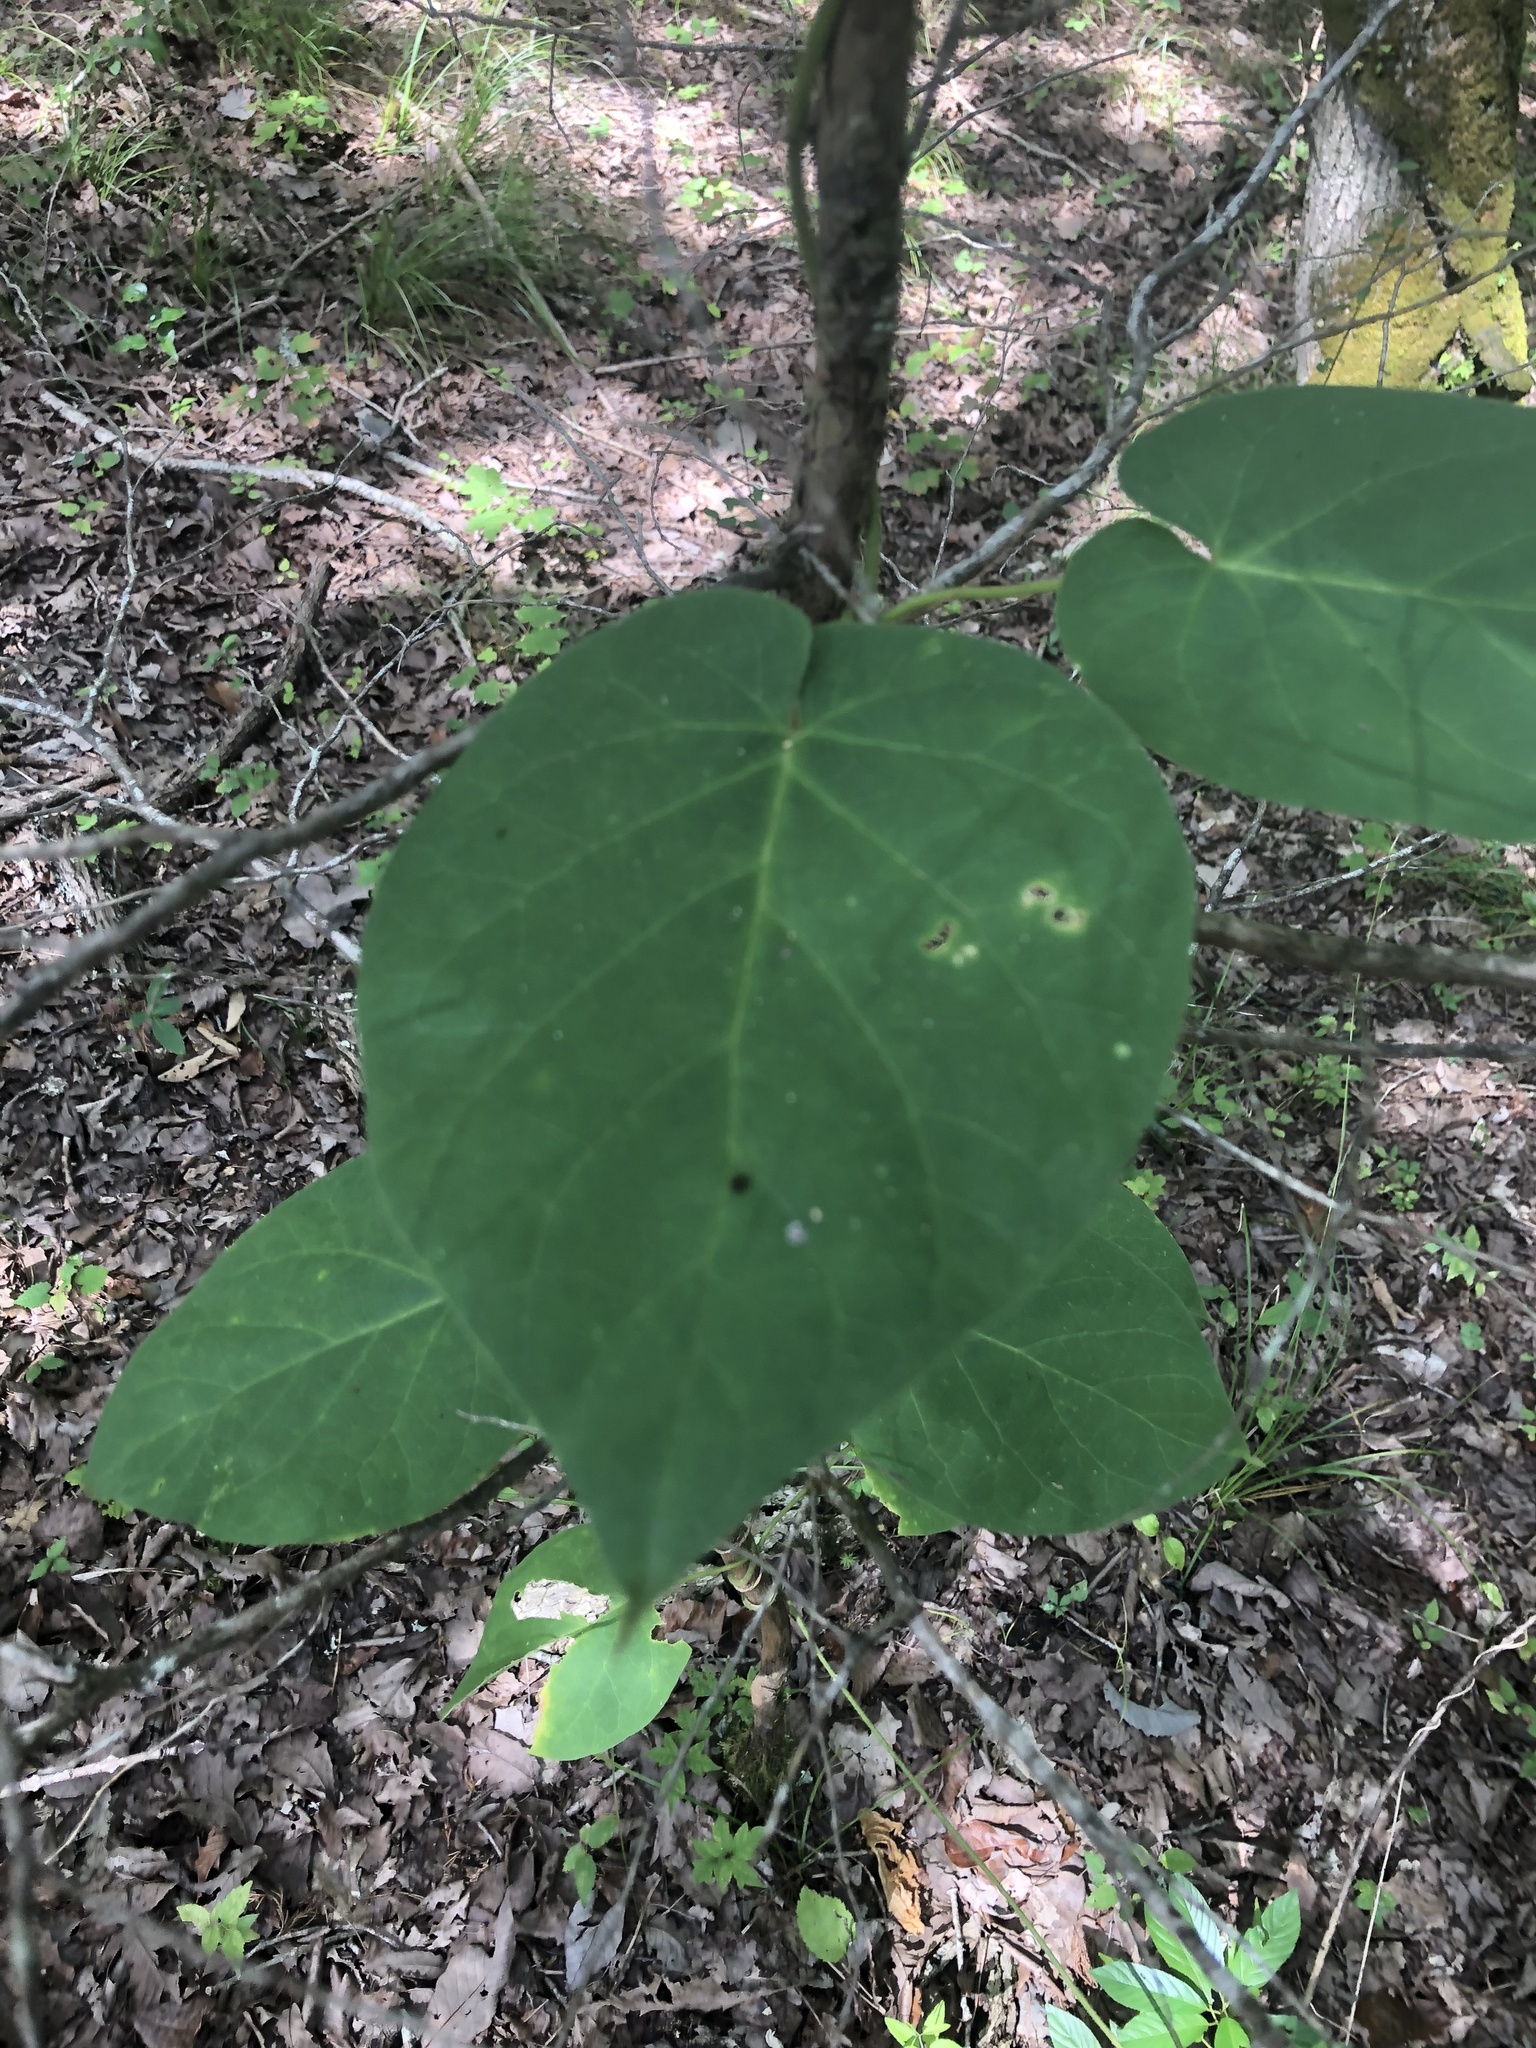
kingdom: Plantae
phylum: Tracheophyta
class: Magnoliopsida
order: Gentianales
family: Apocynaceae
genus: Matelea
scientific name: Matelea obliqua
